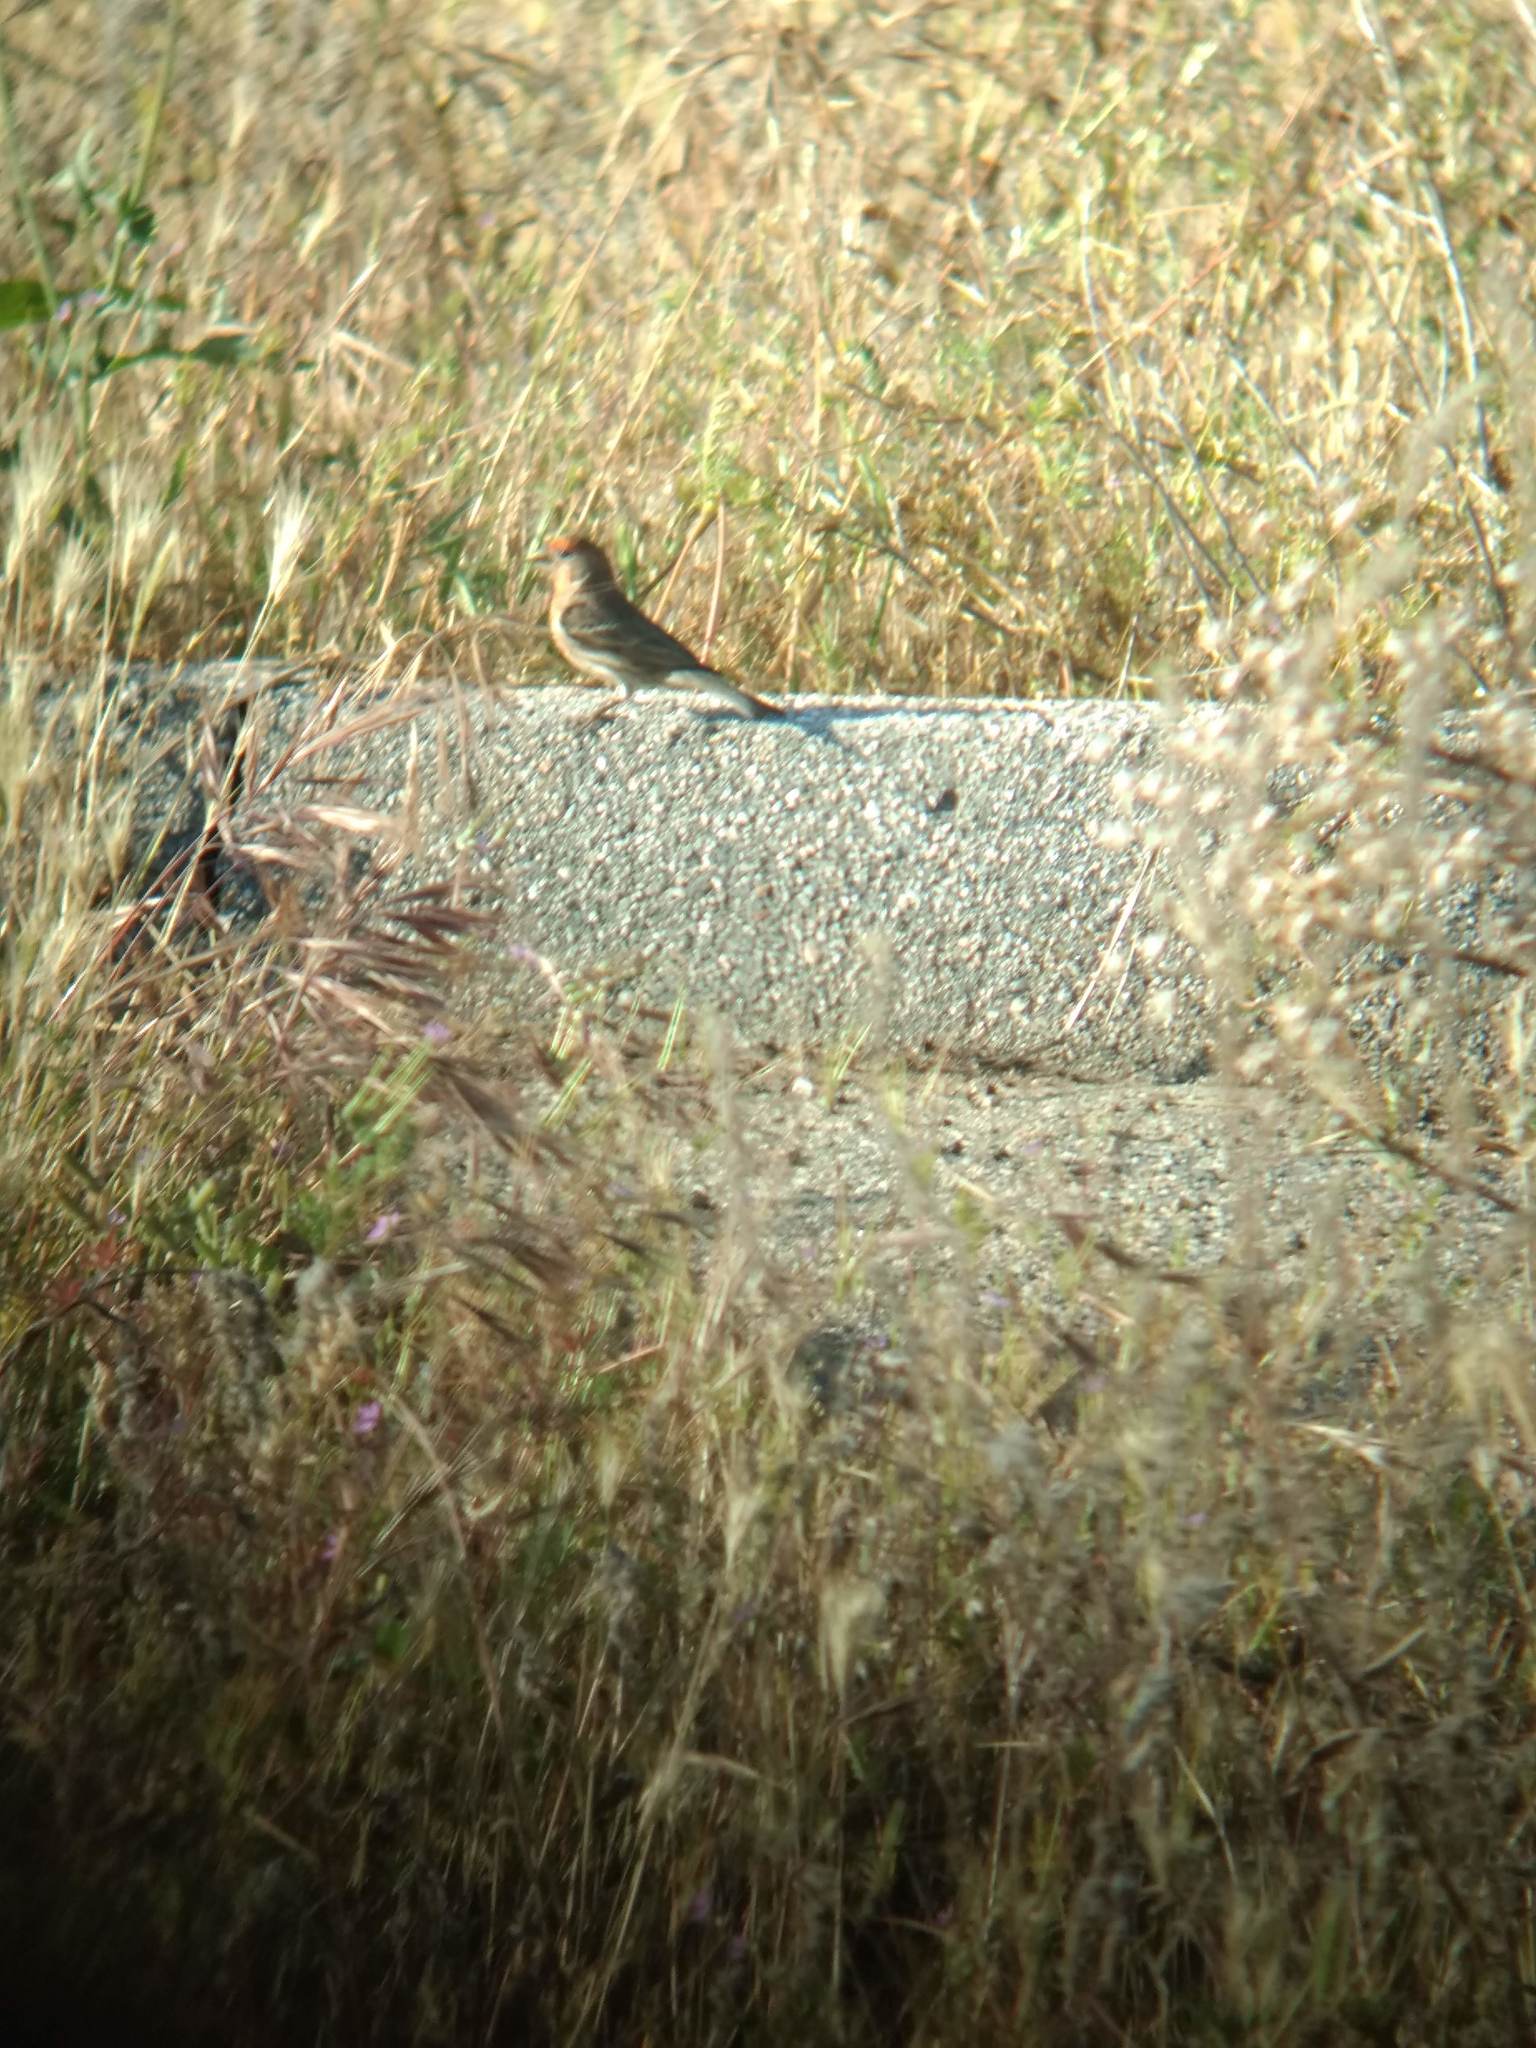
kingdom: Animalia
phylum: Chordata
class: Aves
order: Passeriformes
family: Fringillidae
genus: Haemorhous
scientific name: Haemorhous mexicanus
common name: House finch
